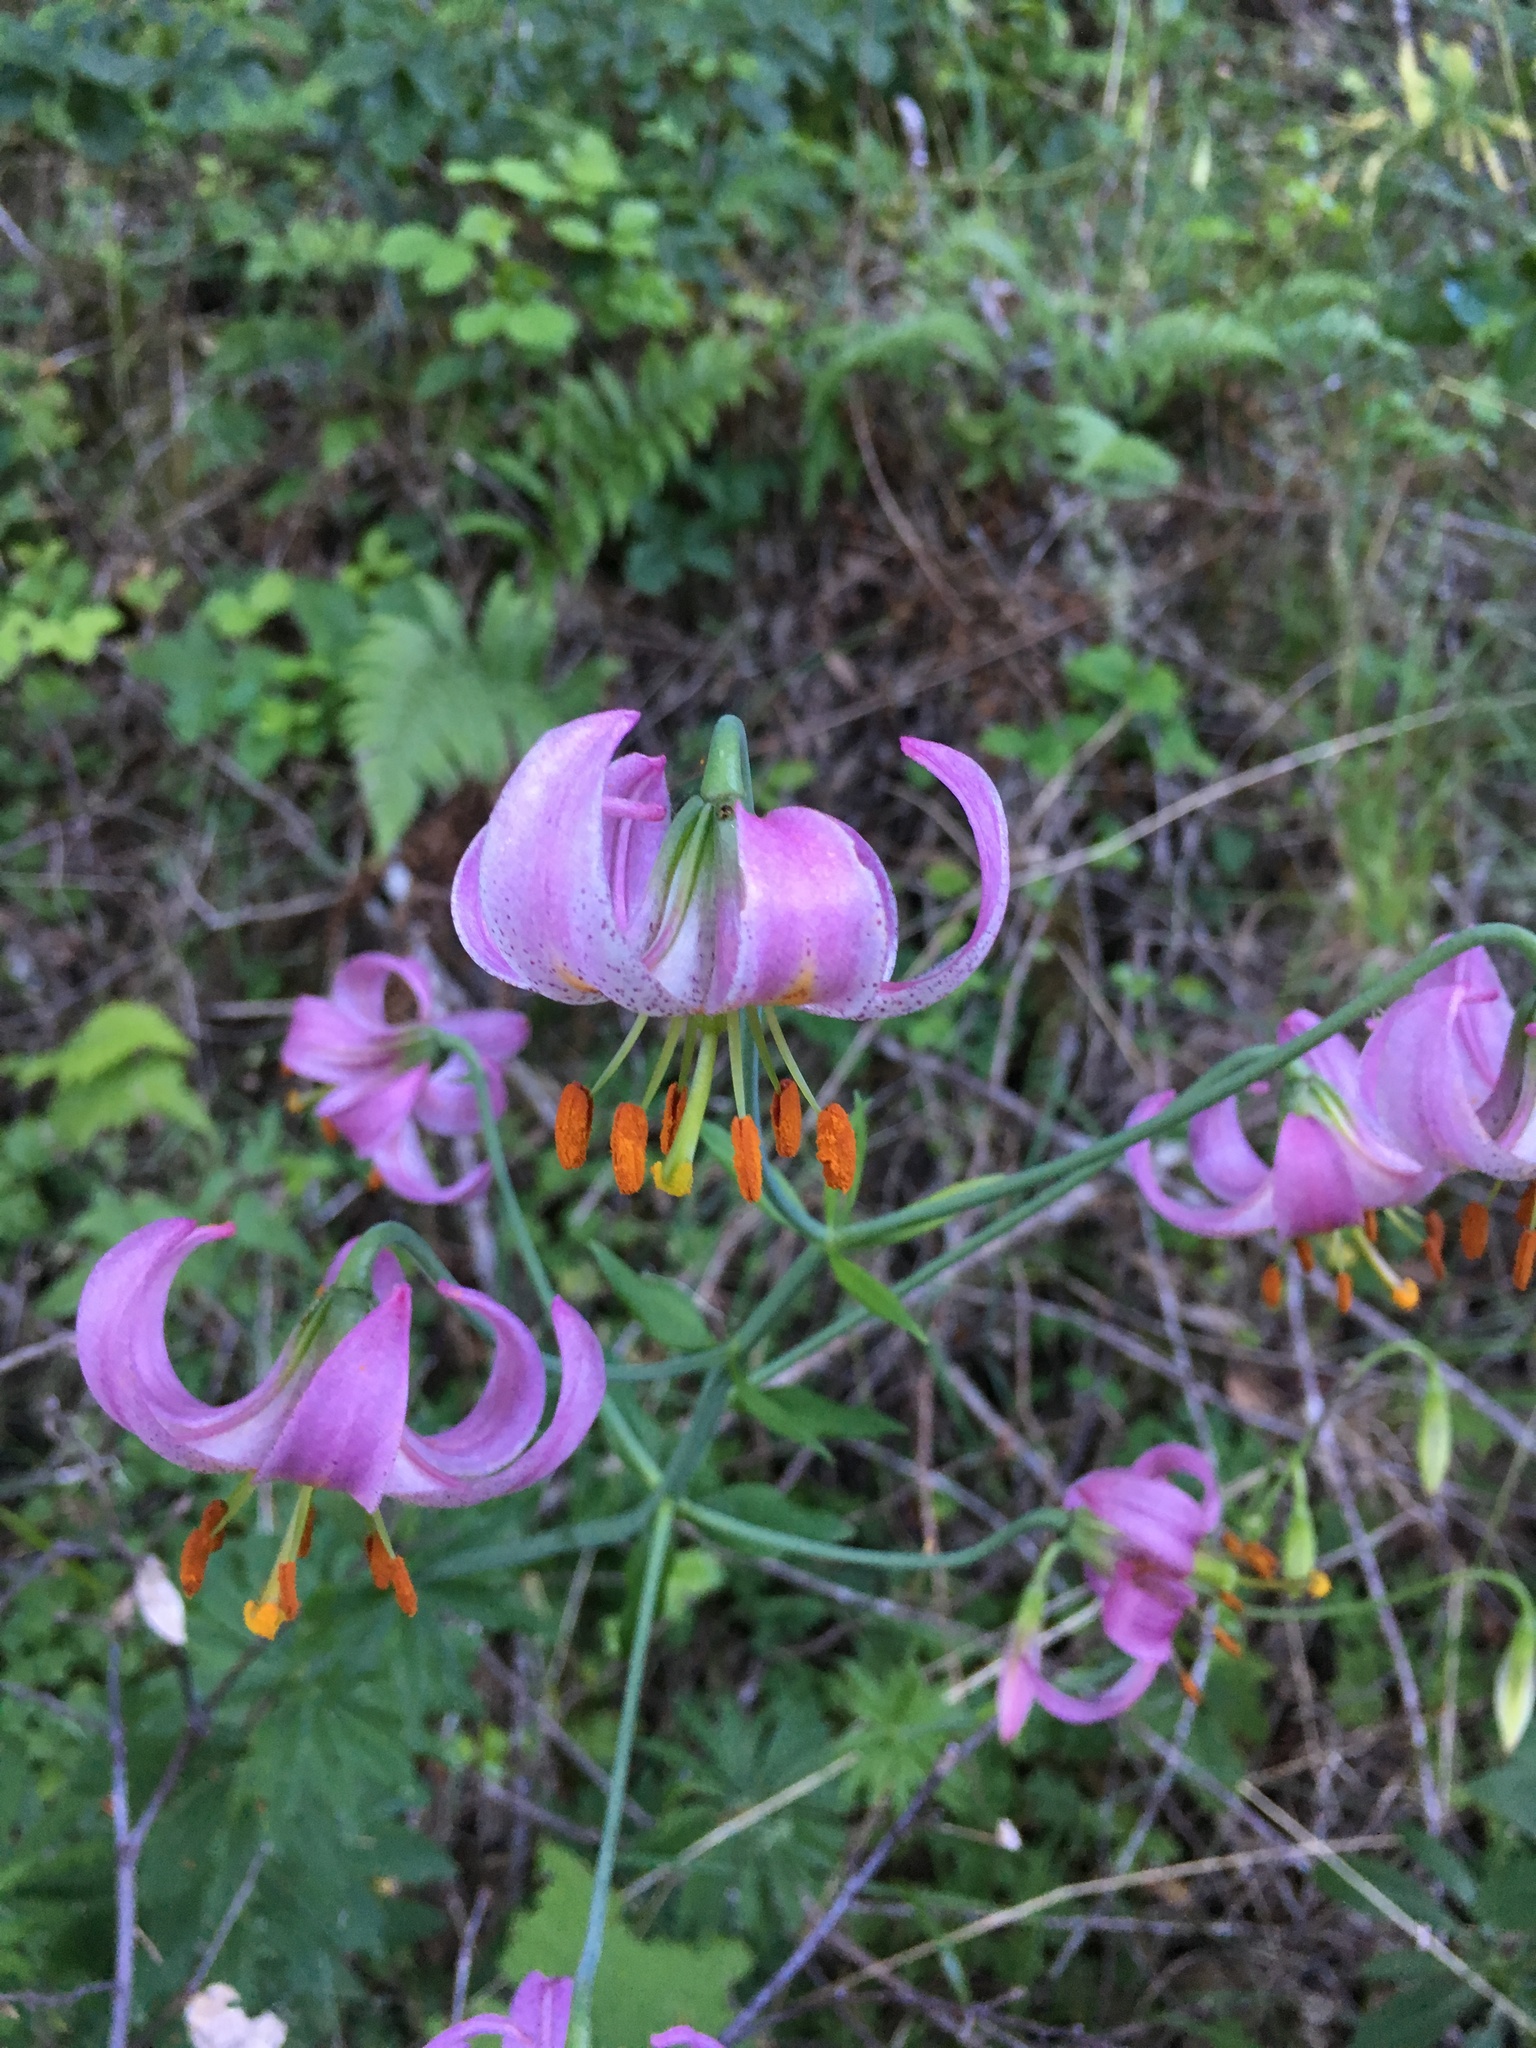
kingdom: Plantae
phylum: Tracheophyta
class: Liliopsida
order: Liliales
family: Liliaceae
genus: Lilium
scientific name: Lilium kelloggii
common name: Kellogg's lily
